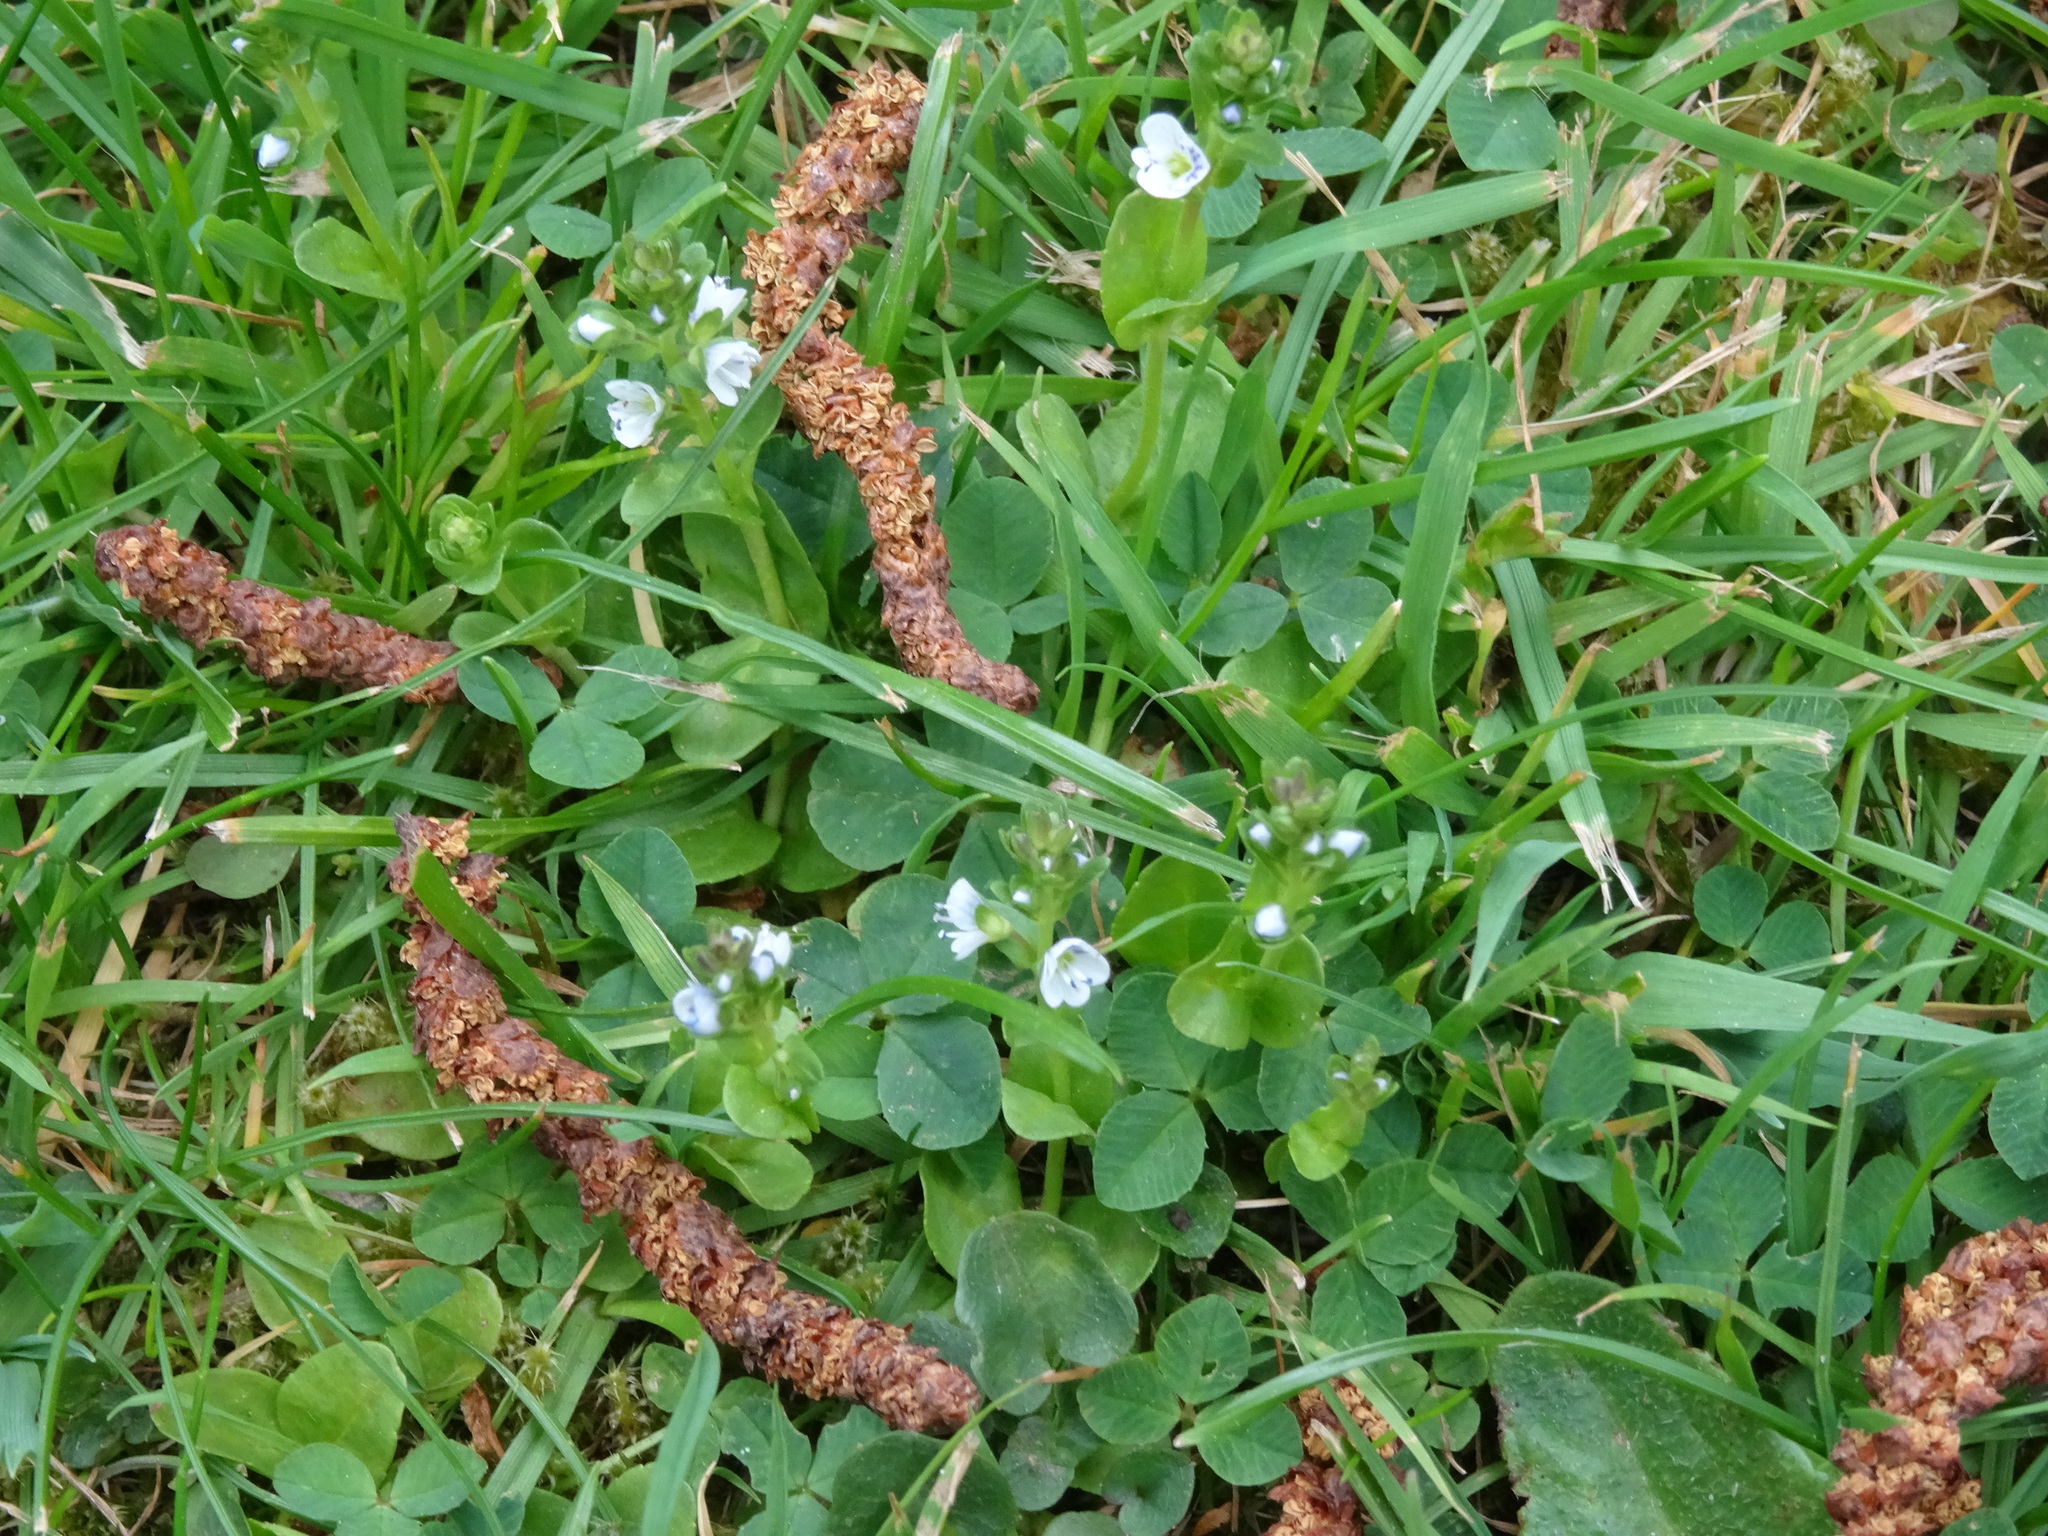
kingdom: Plantae
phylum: Tracheophyta
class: Magnoliopsida
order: Lamiales
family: Plantaginaceae
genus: Veronica
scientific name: Veronica serpyllifolia
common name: Thyme-leaved speedwell
